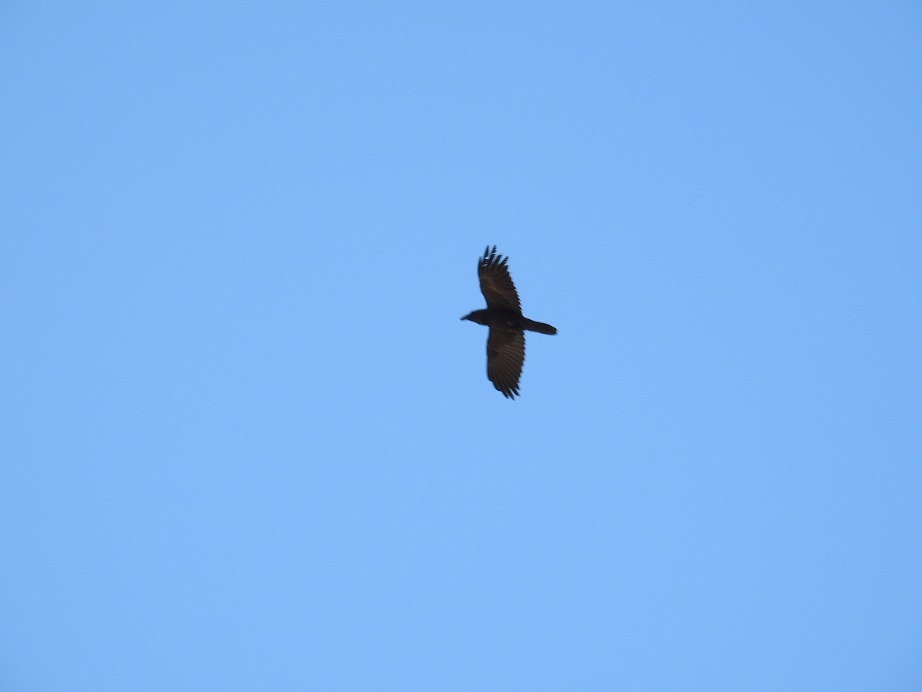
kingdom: Animalia
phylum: Chordata
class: Aves
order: Passeriformes
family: Corvidae
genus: Corvus
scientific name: Corvus corax
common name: Common raven
